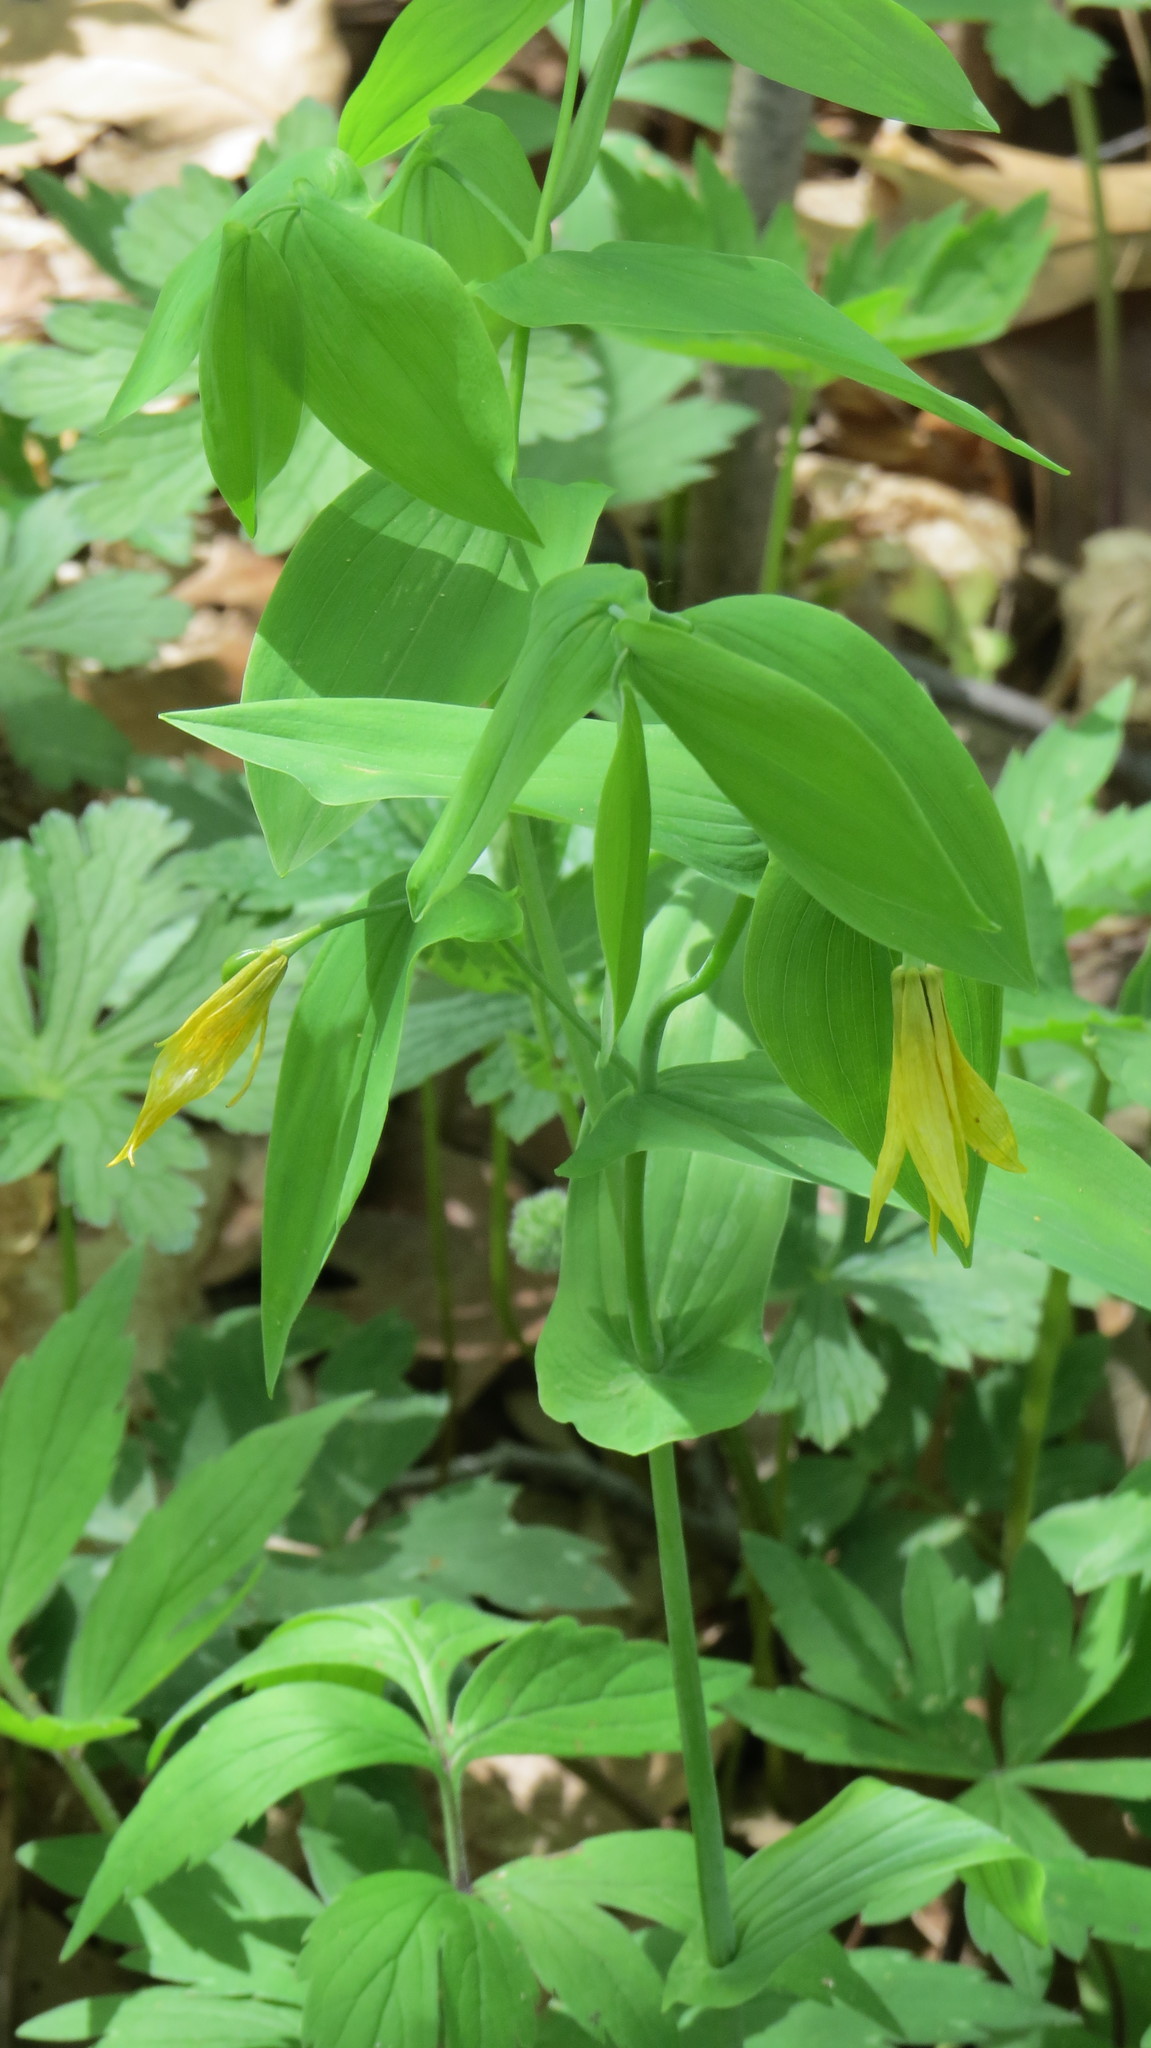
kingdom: Plantae
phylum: Tracheophyta
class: Liliopsida
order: Liliales
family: Colchicaceae
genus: Uvularia
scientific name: Uvularia grandiflora
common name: Bellwort
